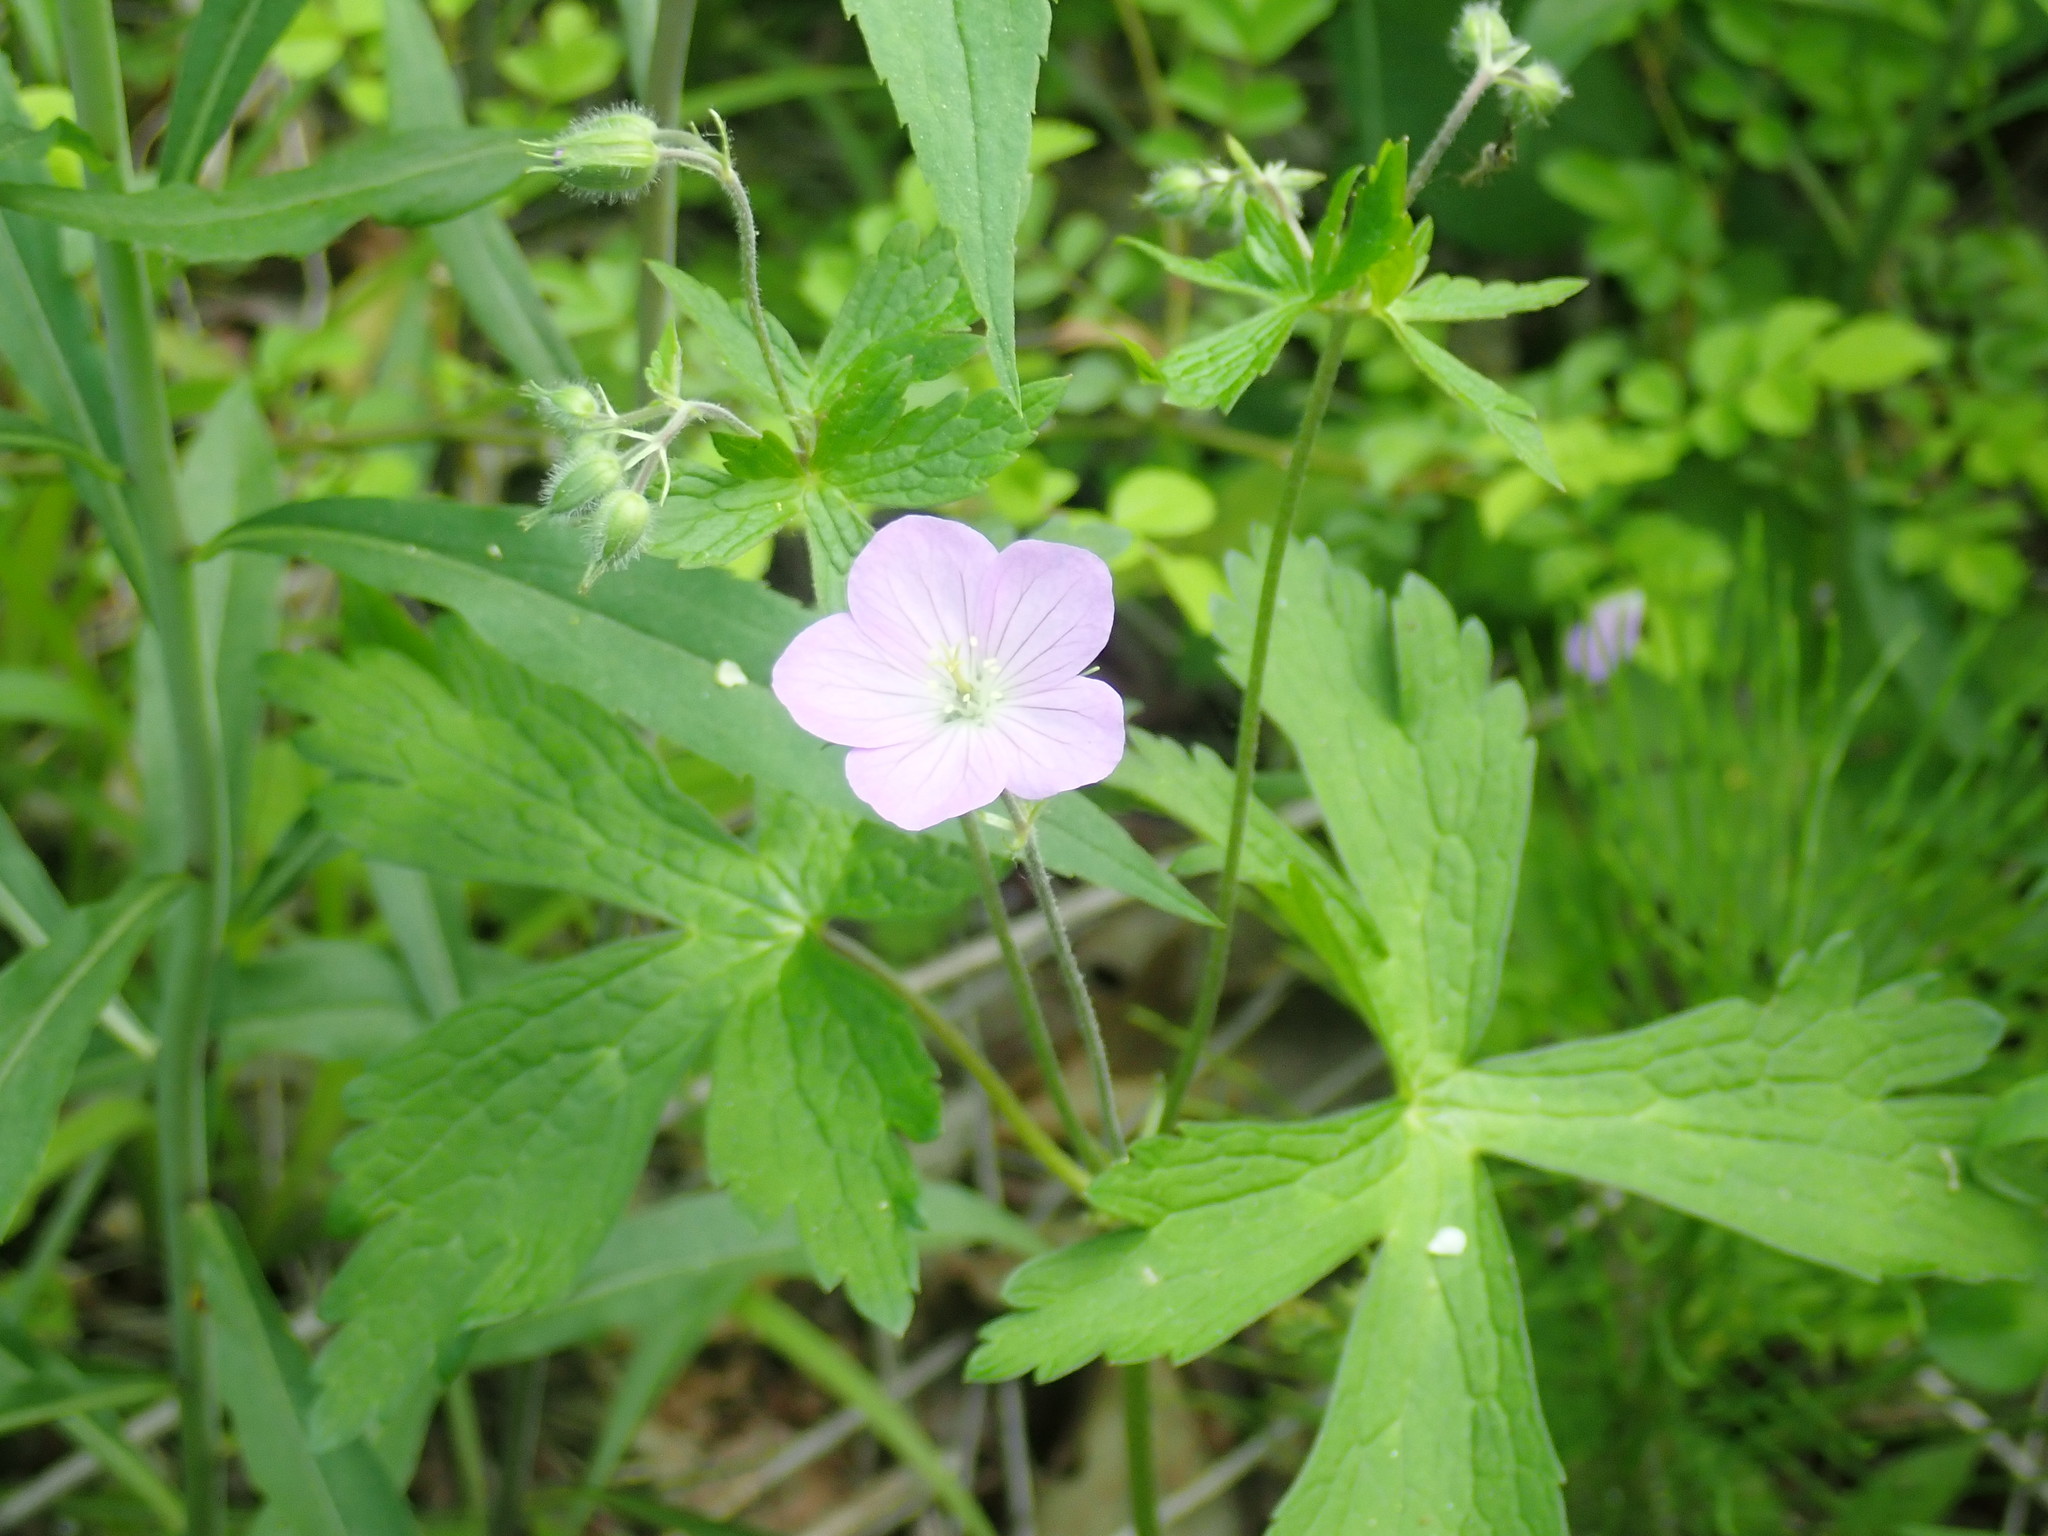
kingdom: Plantae
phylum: Tracheophyta
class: Magnoliopsida
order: Geraniales
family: Geraniaceae
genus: Geranium
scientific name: Geranium maculatum
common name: Spotted geranium
